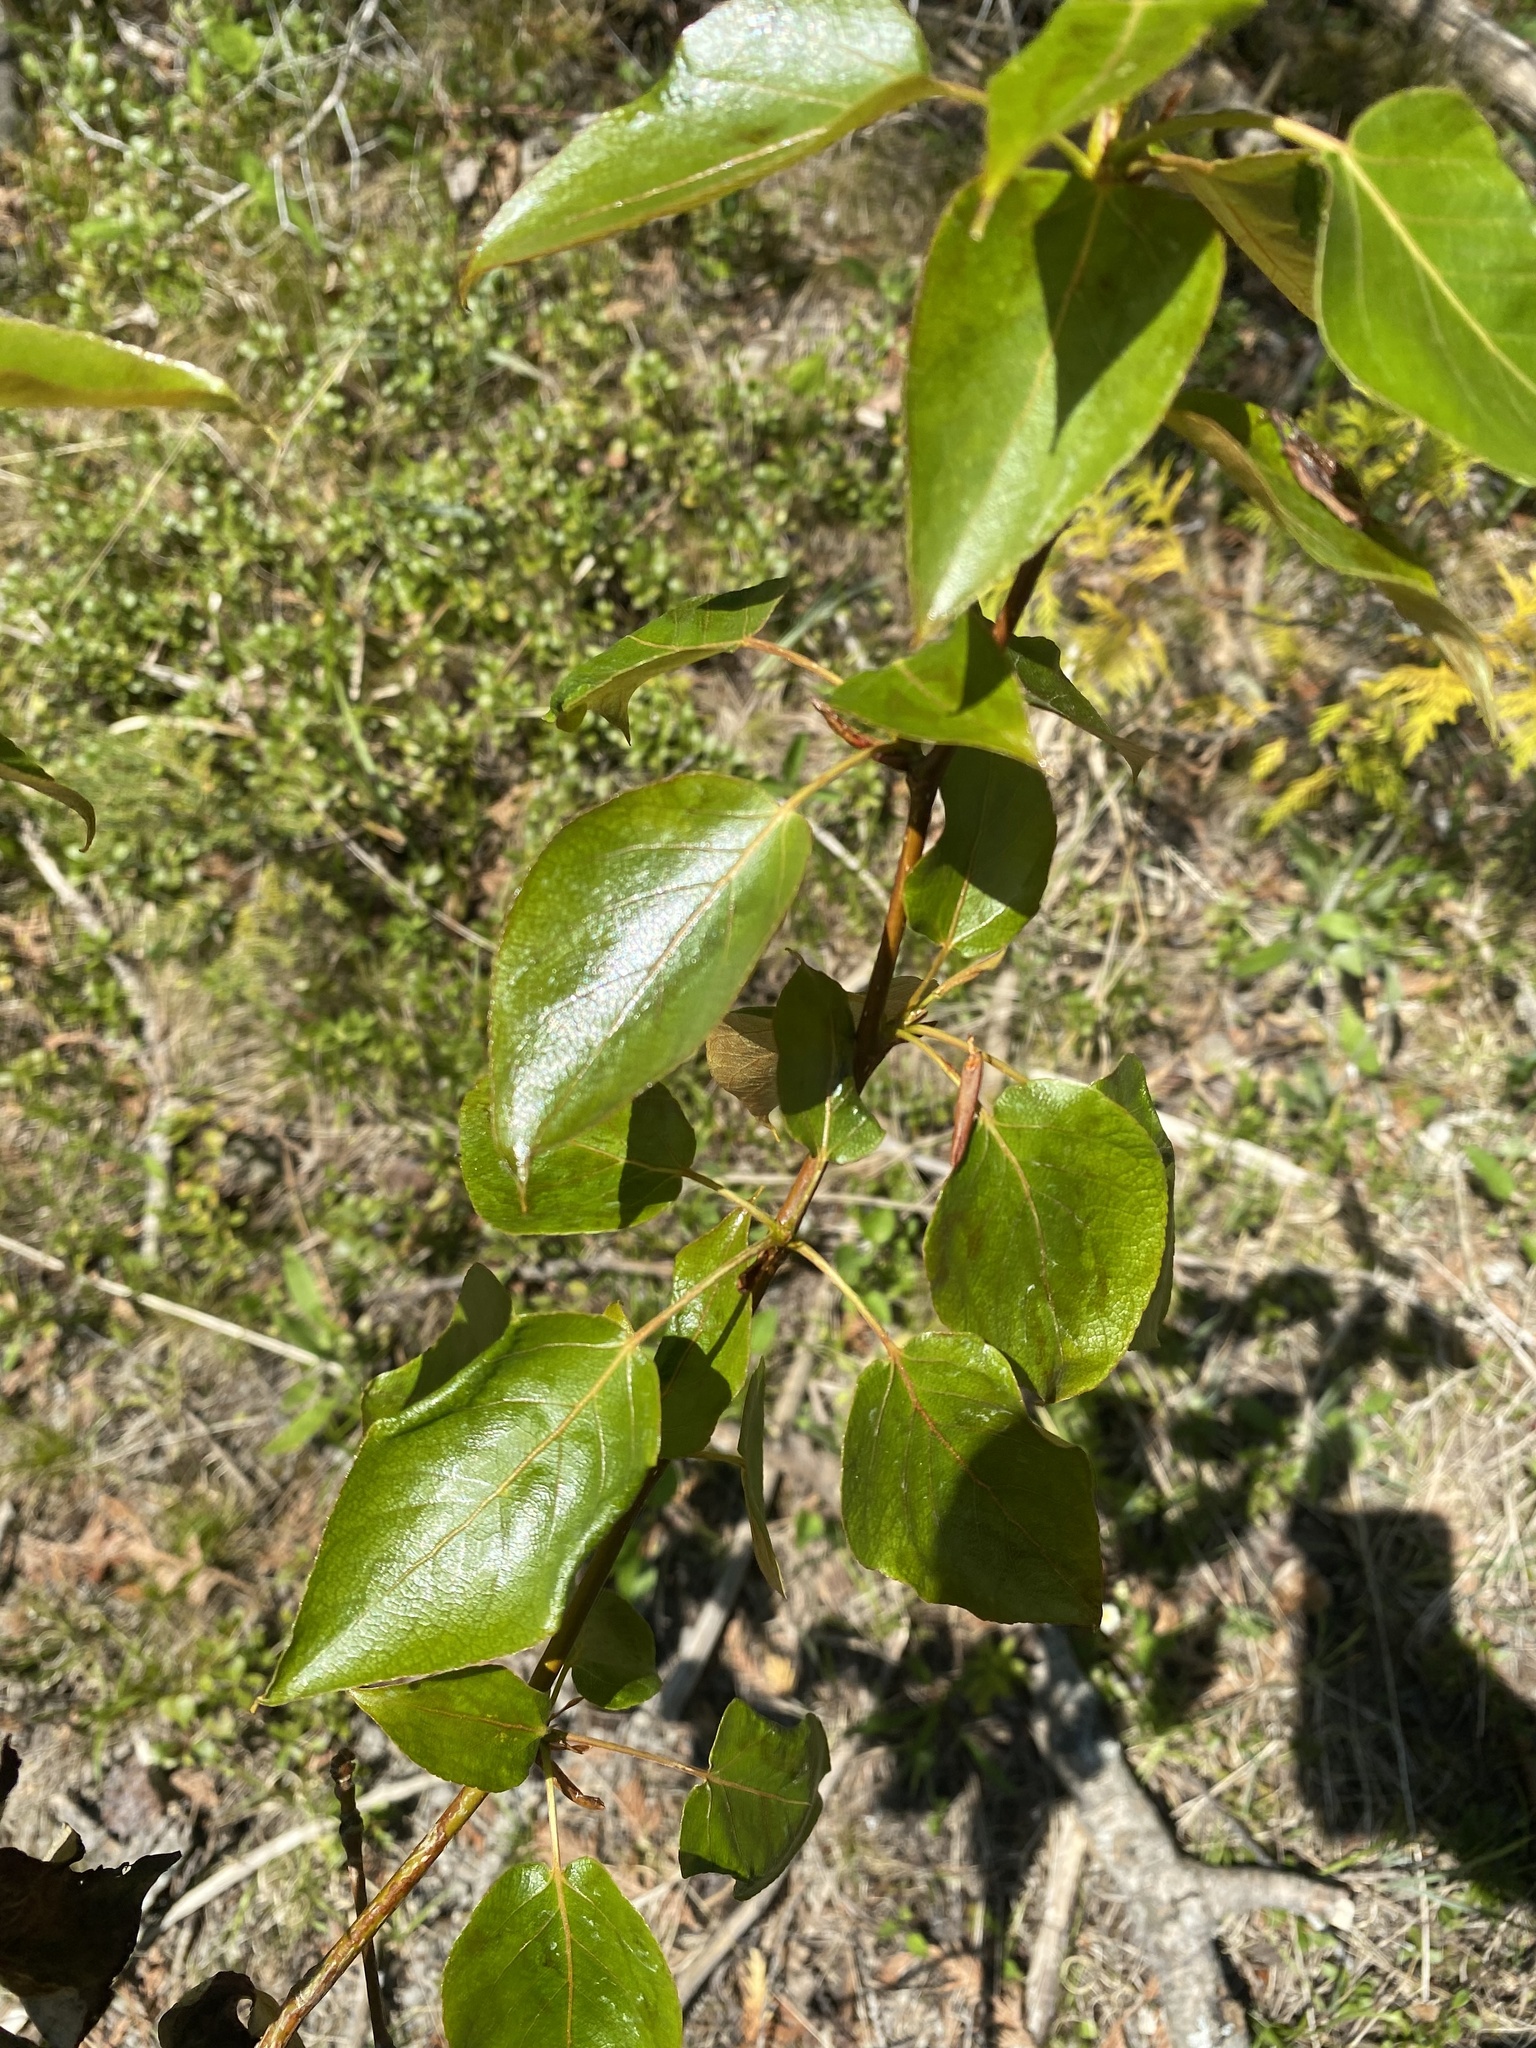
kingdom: Plantae
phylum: Tracheophyta
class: Magnoliopsida
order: Malpighiales
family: Salicaceae
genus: Populus
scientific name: Populus balsamifera
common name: Balsam poplar
